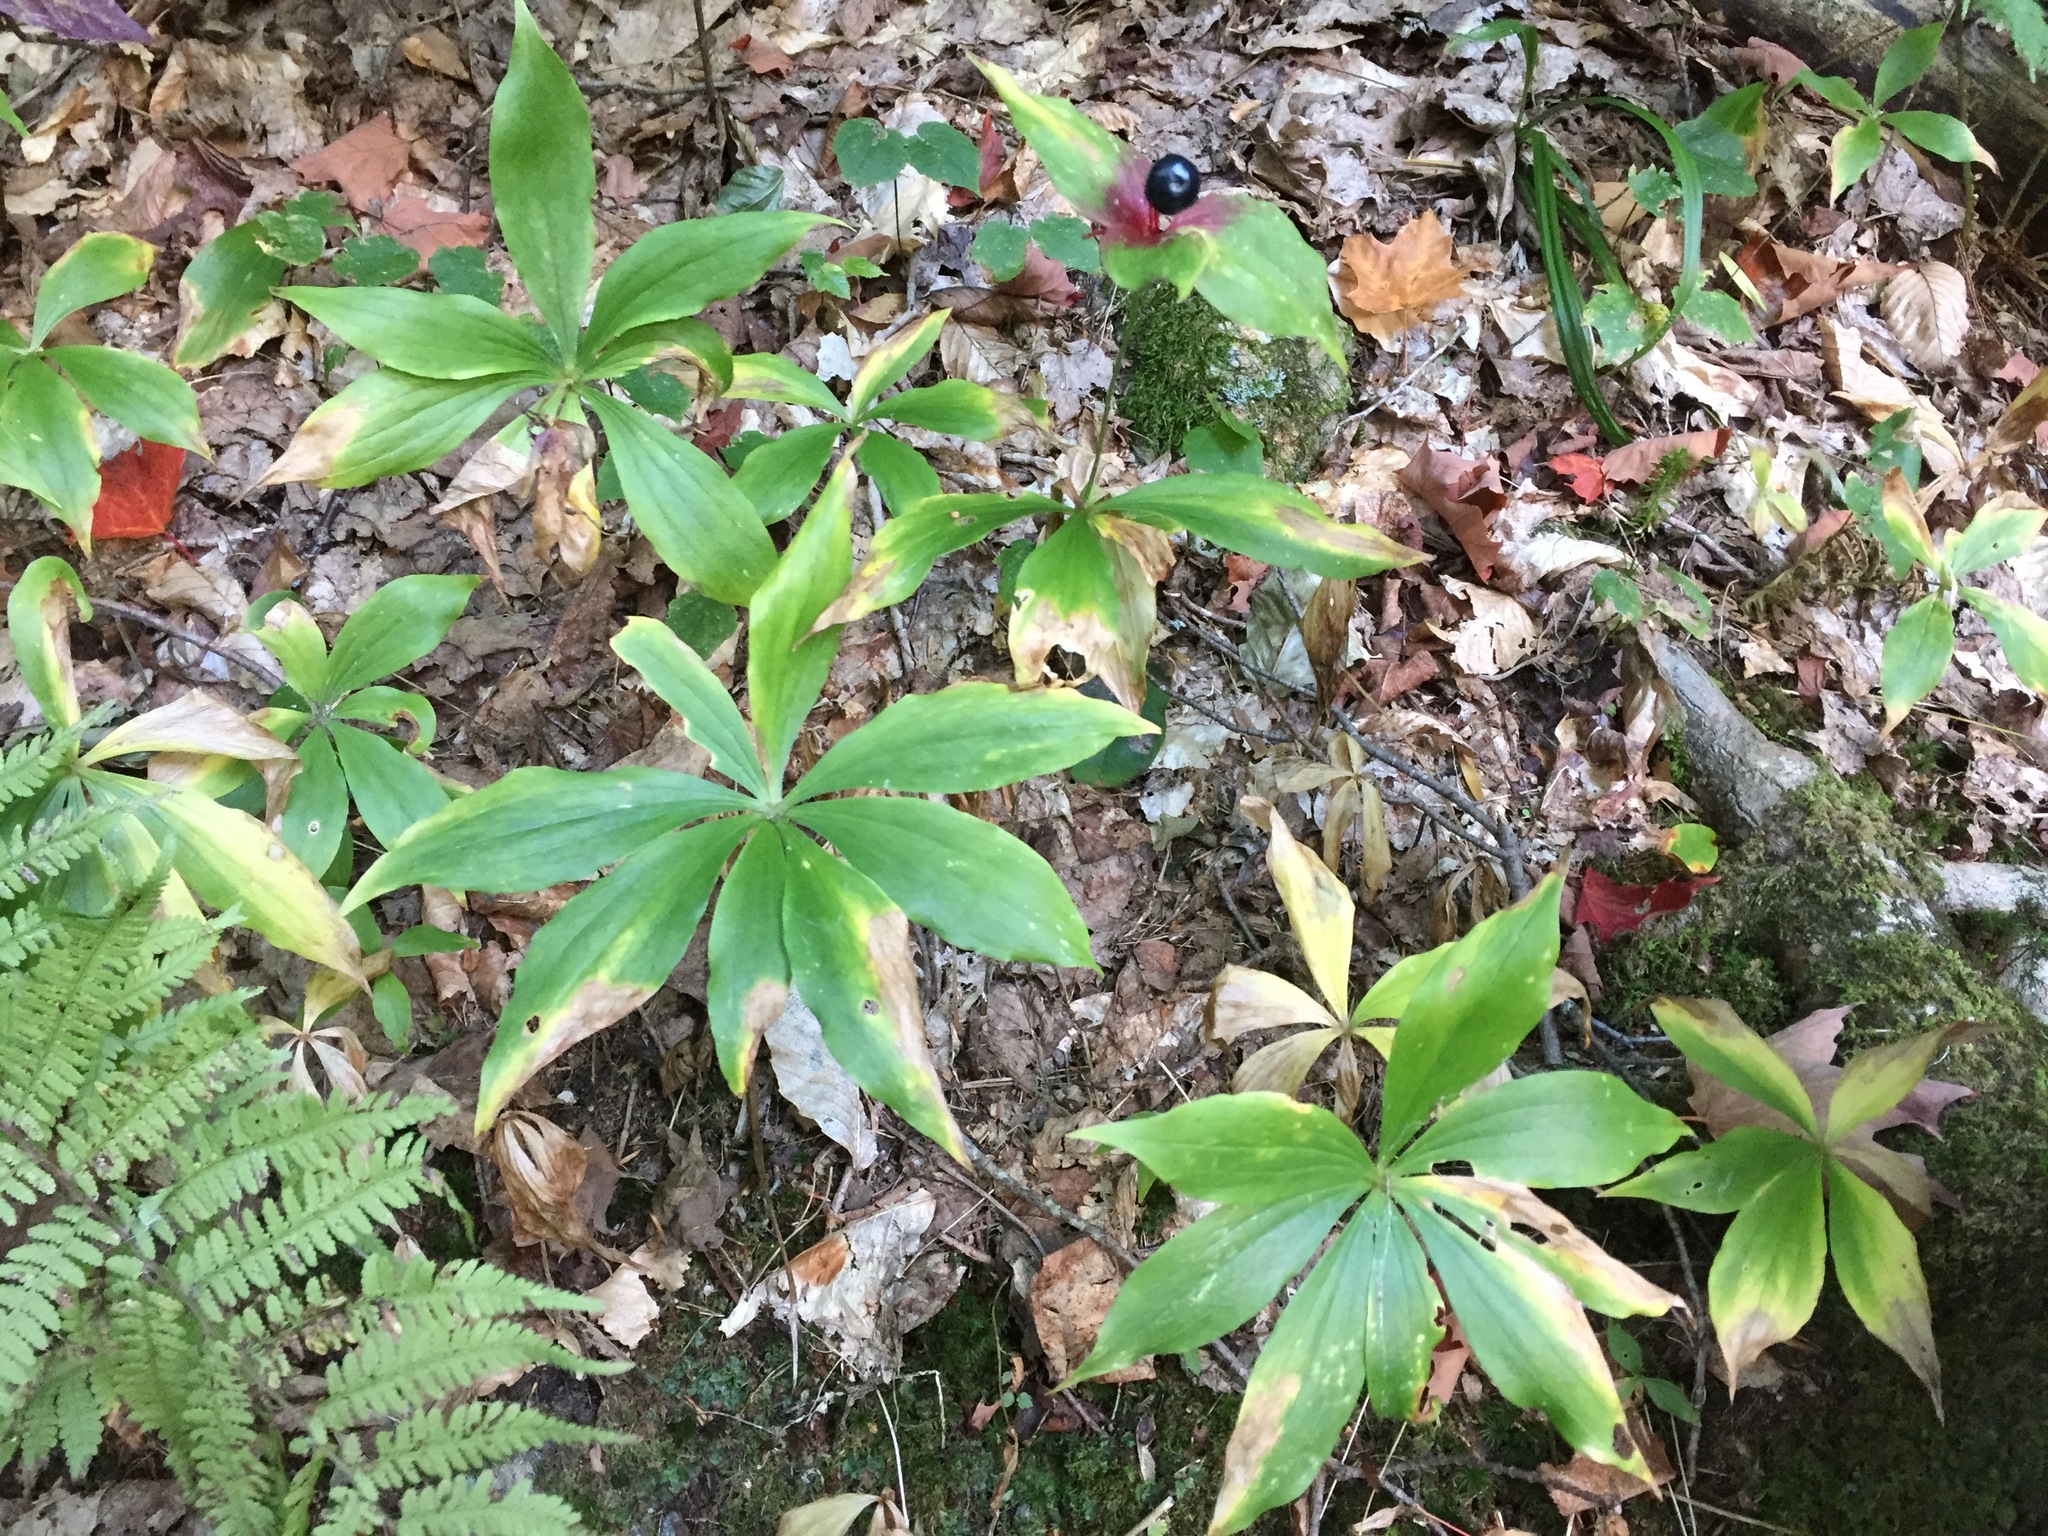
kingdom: Plantae
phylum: Tracheophyta
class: Liliopsida
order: Liliales
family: Liliaceae
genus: Medeola
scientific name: Medeola virginiana
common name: Indian cucumber-root
